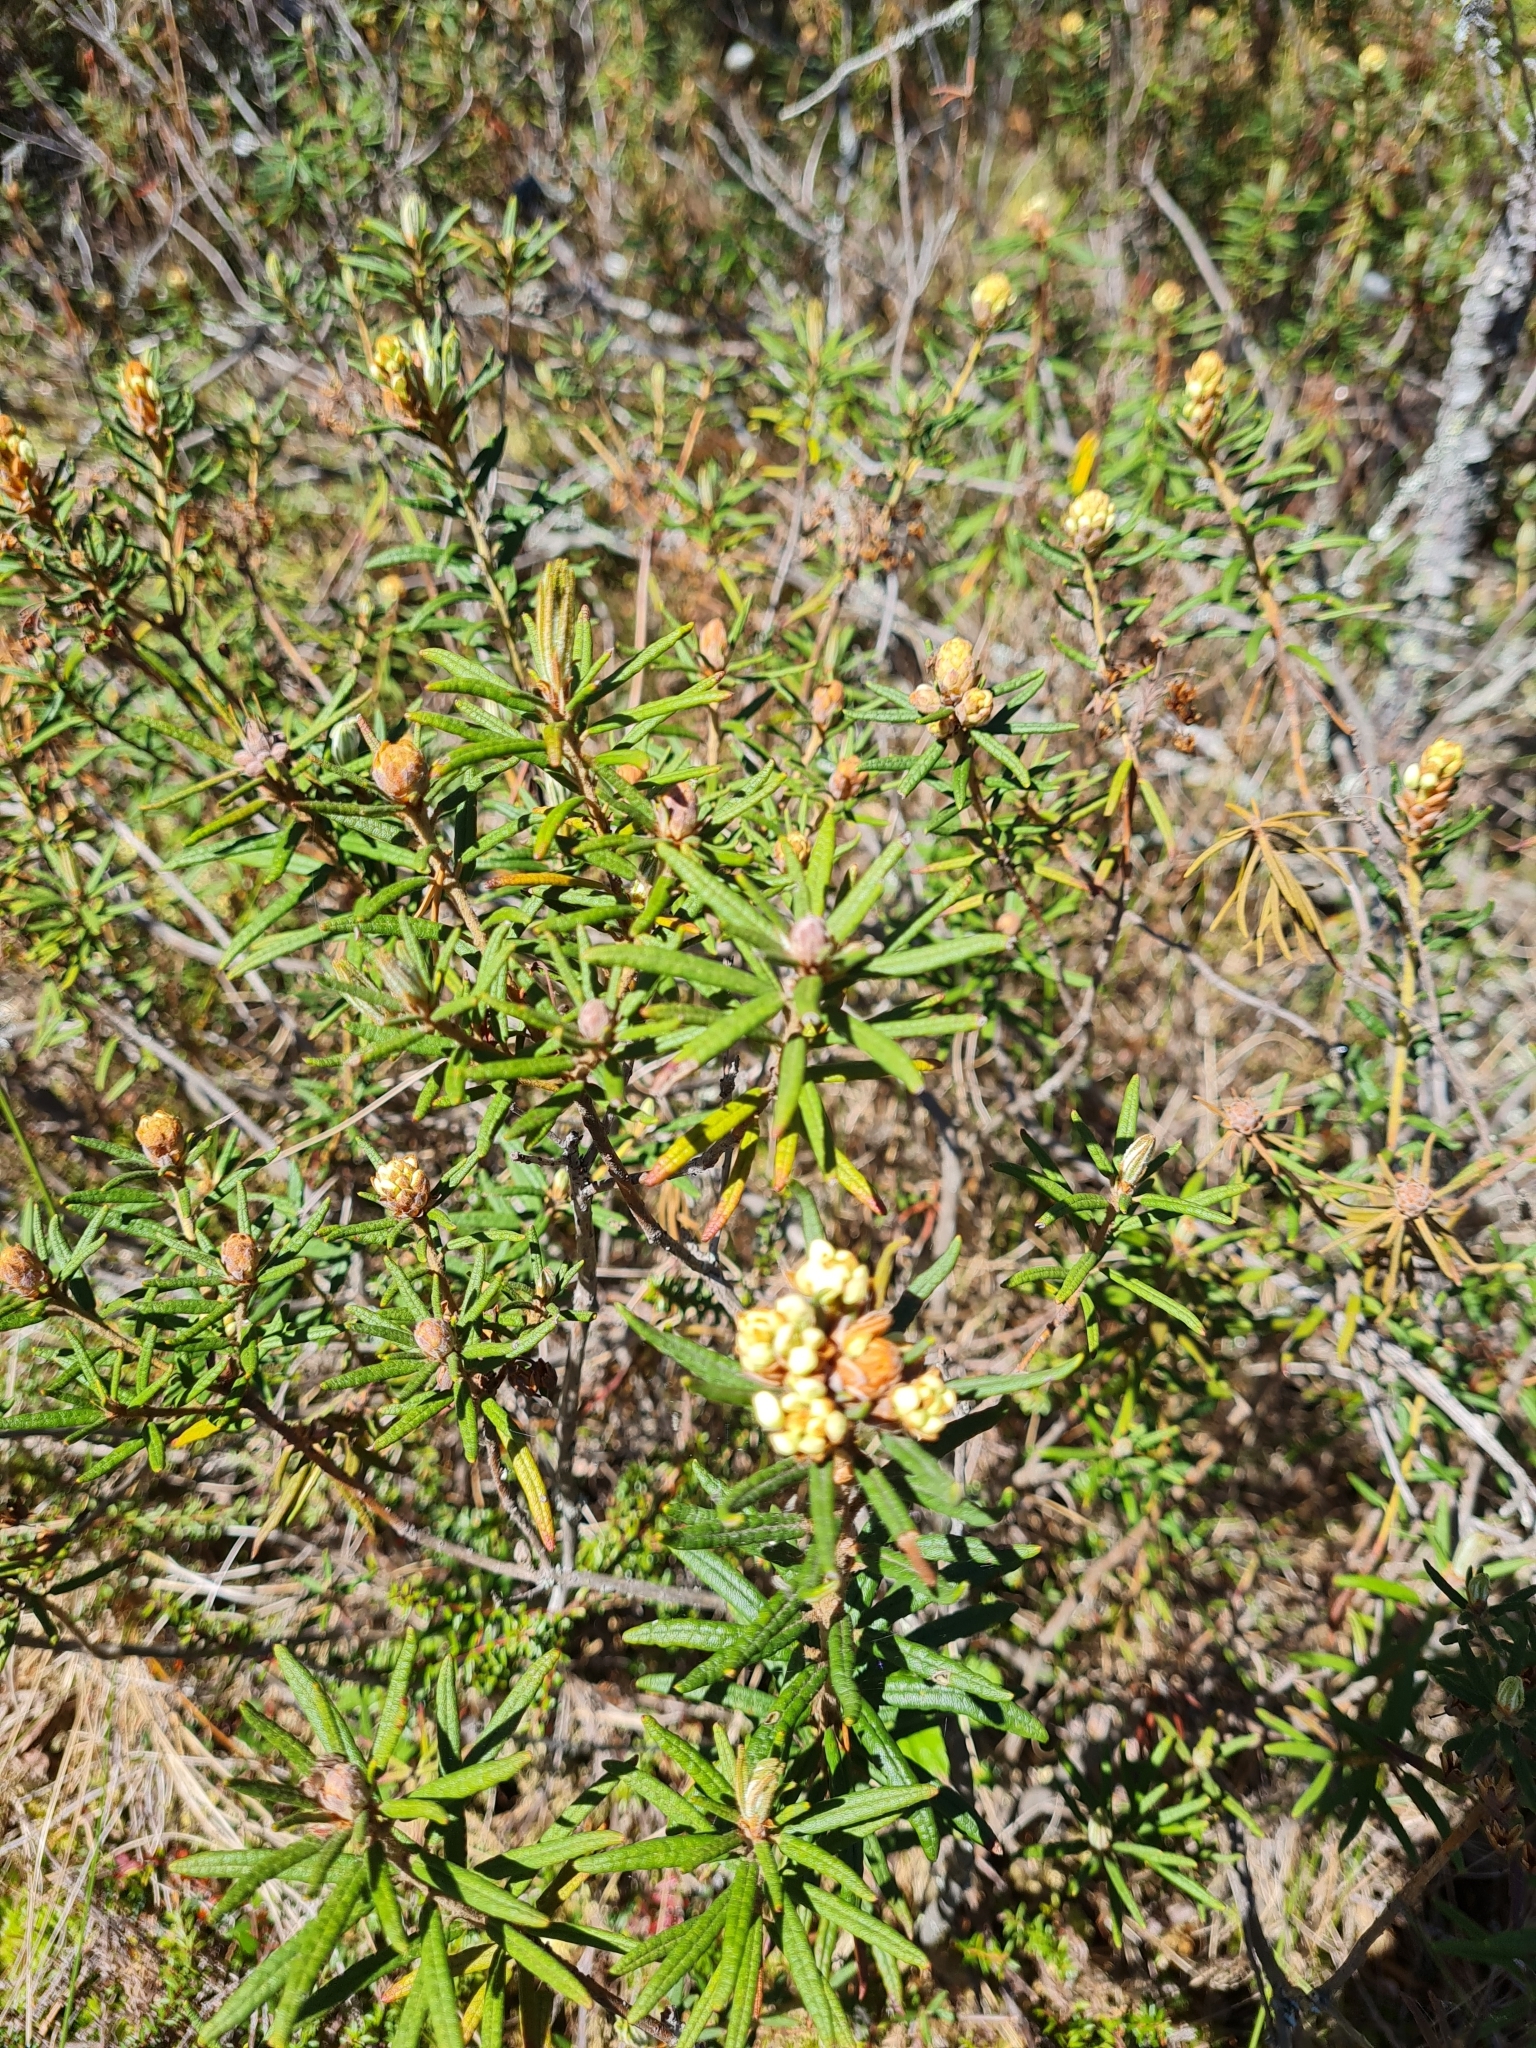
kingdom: Plantae
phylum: Tracheophyta
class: Magnoliopsida
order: Ericales
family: Ericaceae
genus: Rhododendron
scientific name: Rhododendron tomentosum
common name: Marsh labrador tea
